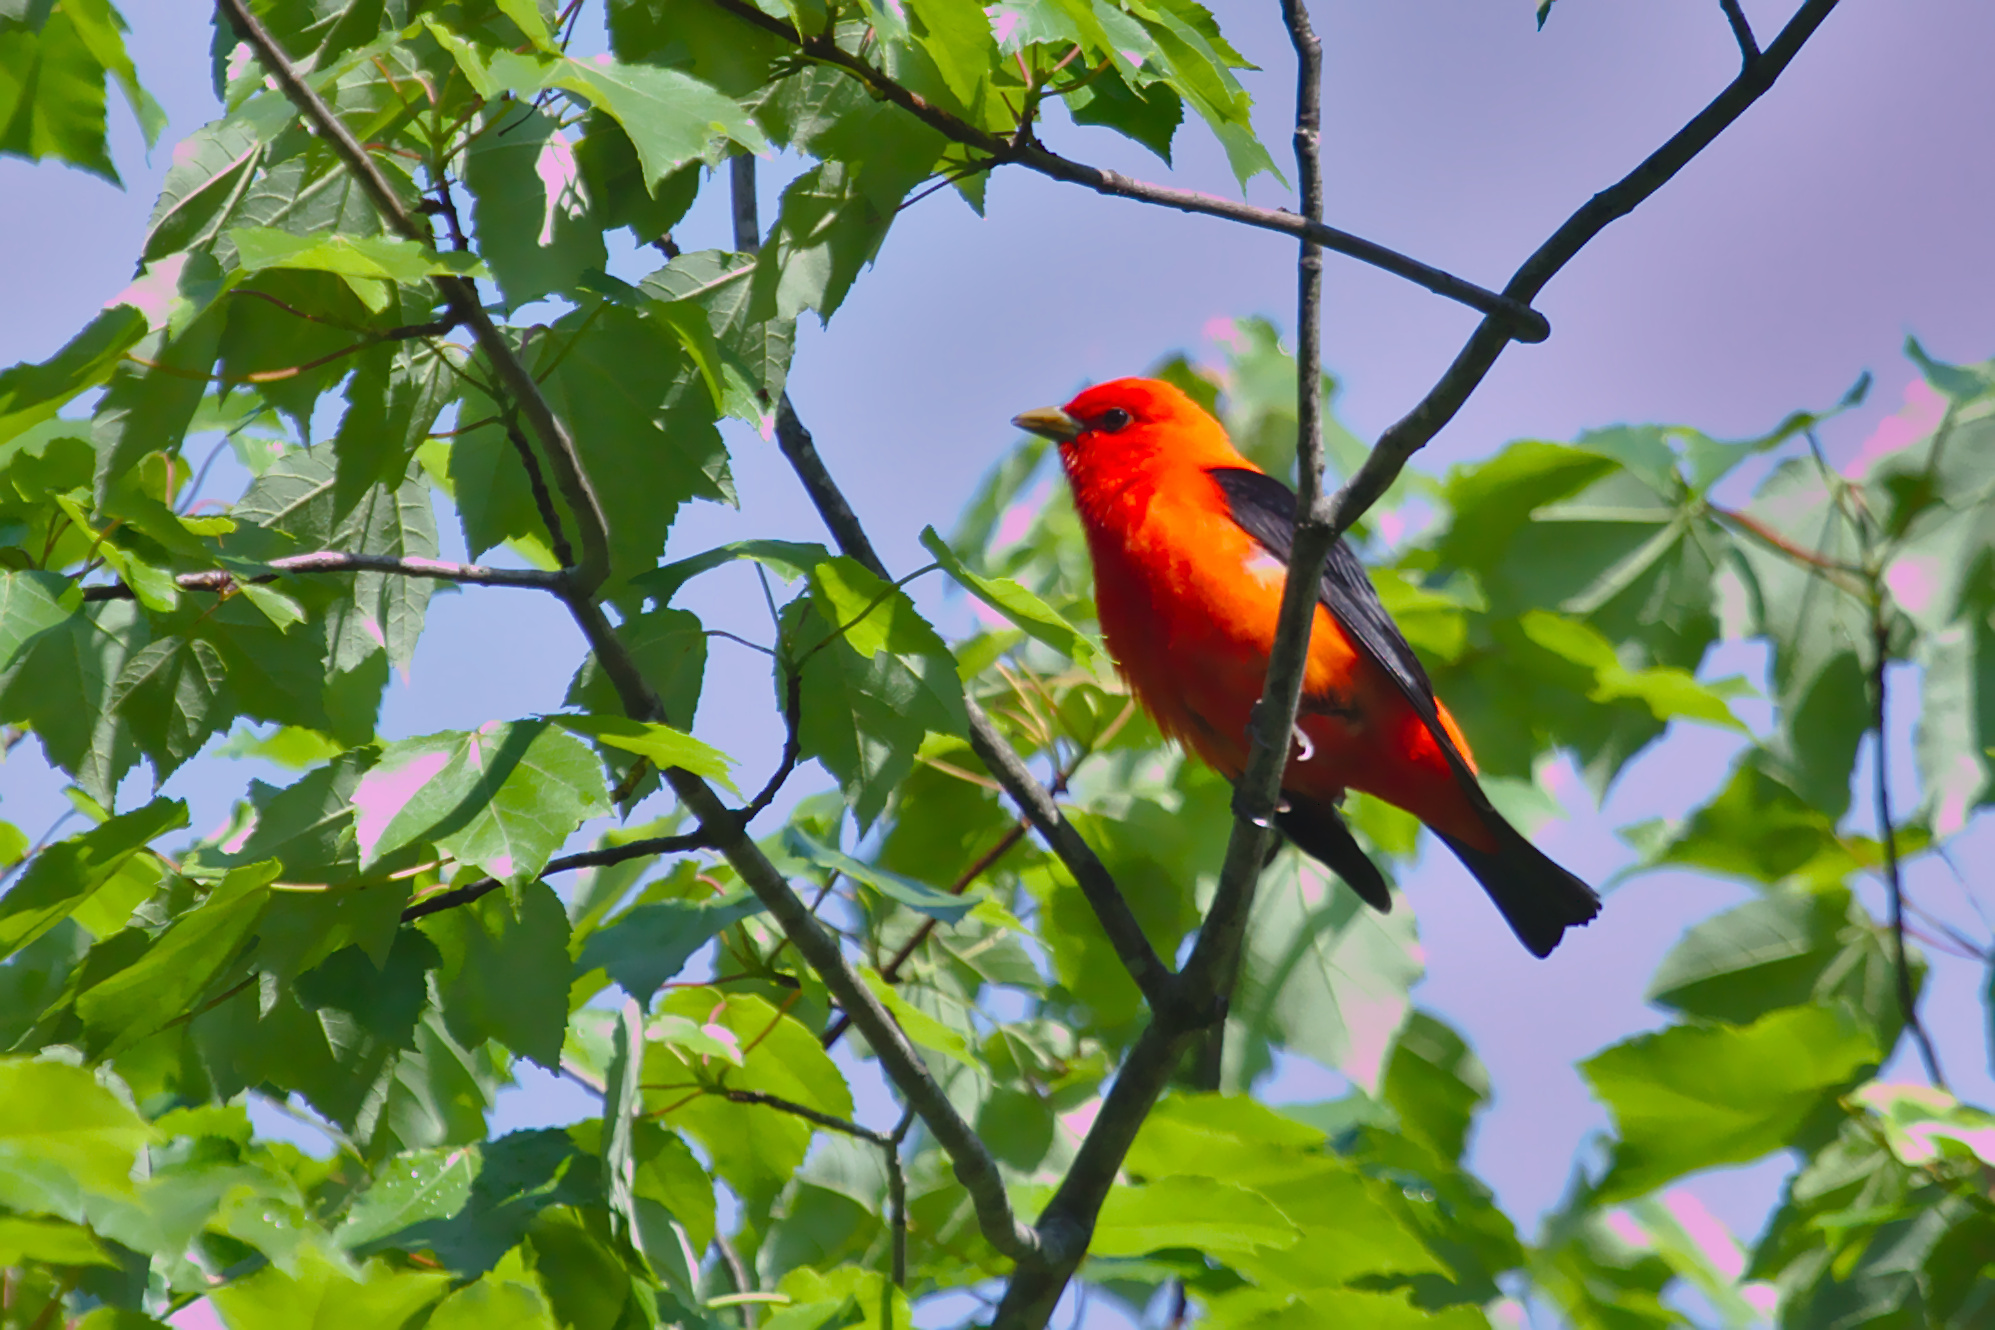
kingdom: Animalia
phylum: Chordata
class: Aves
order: Passeriformes
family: Cardinalidae
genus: Piranga
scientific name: Piranga olivacea
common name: Scarlet tanager
